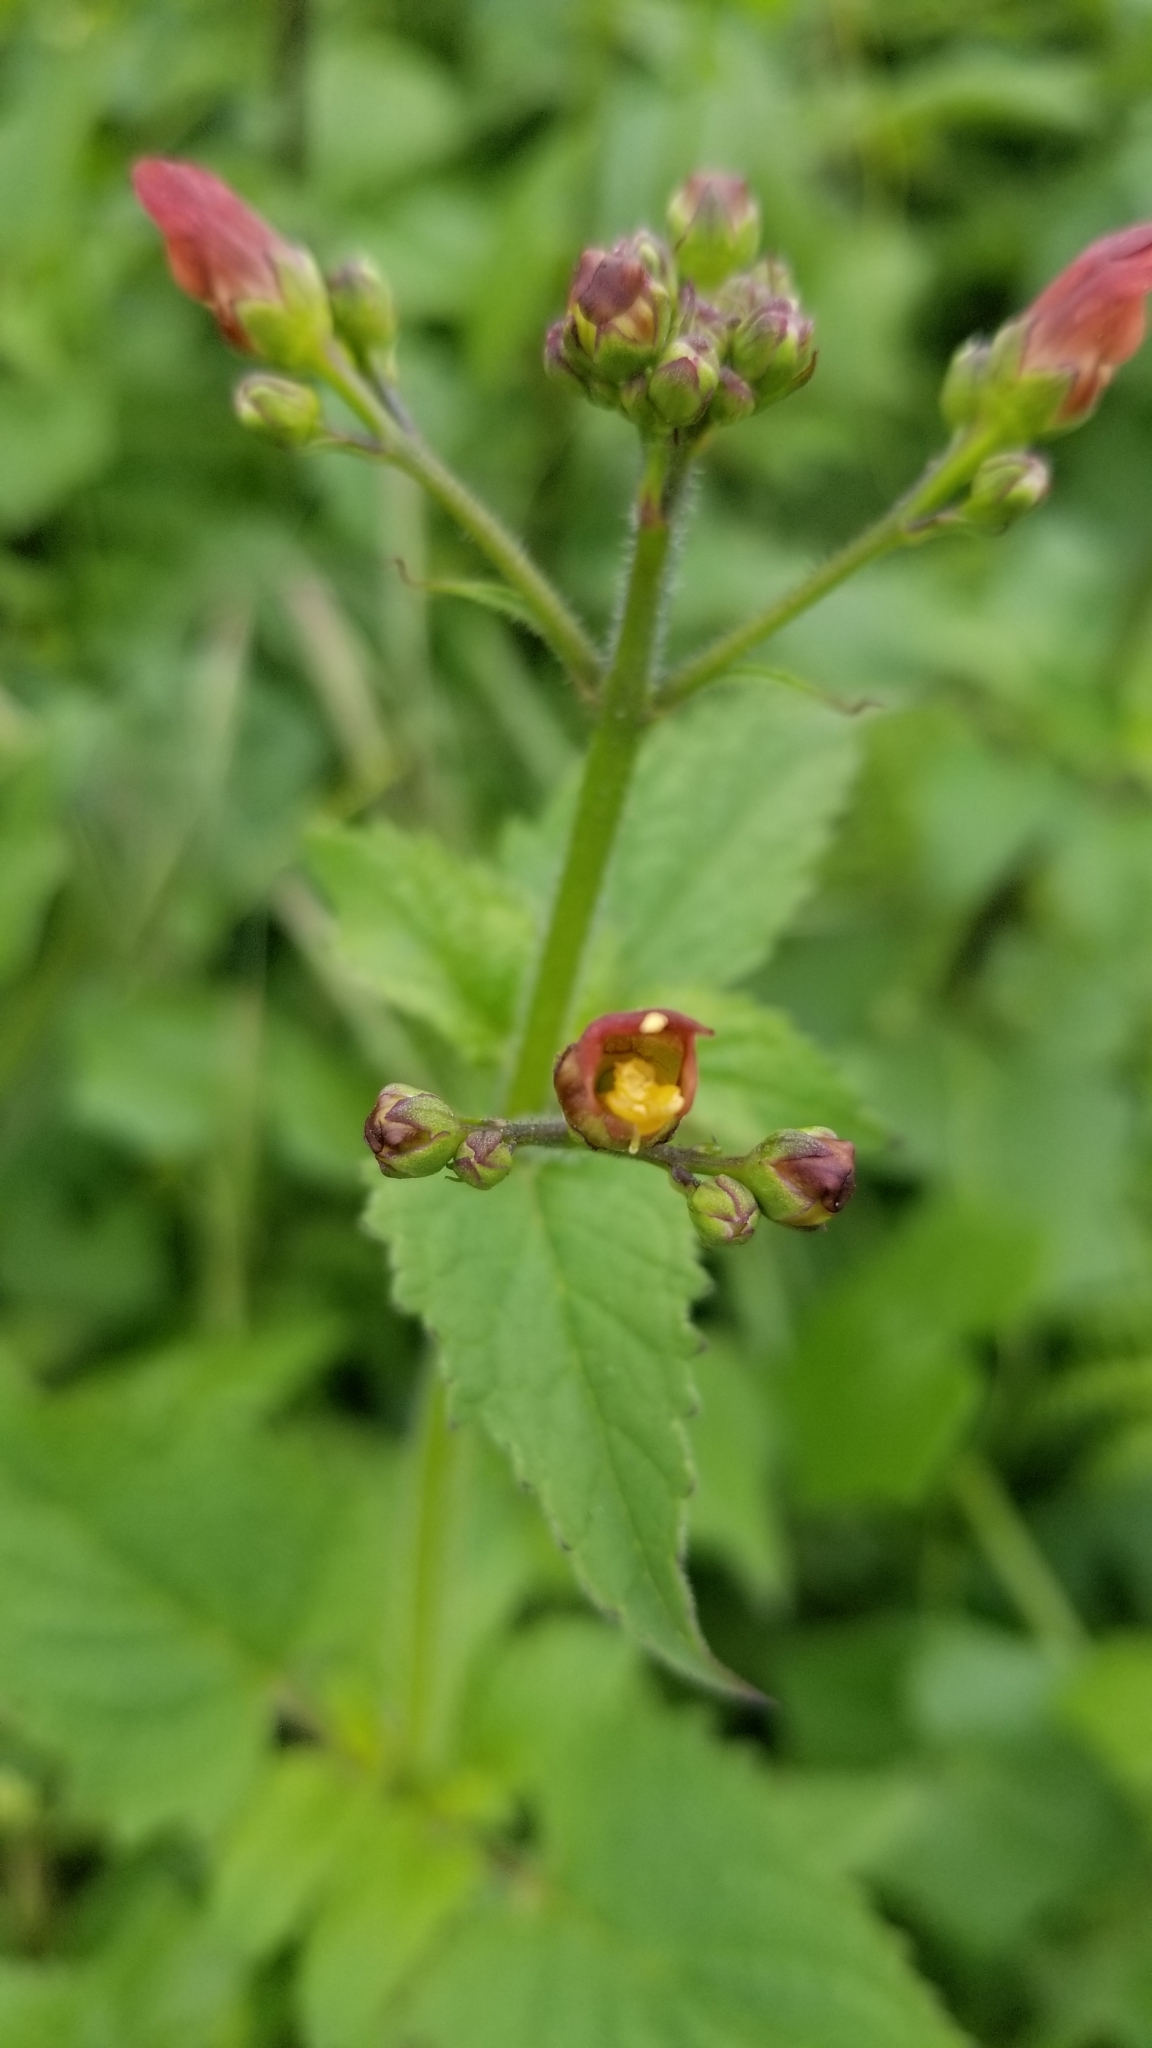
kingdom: Plantae
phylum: Tracheophyta
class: Magnoliopsida
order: Lamiales
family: Scrophulariaceae
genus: Scrophularia
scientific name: Scrophularia californica
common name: California figwort
